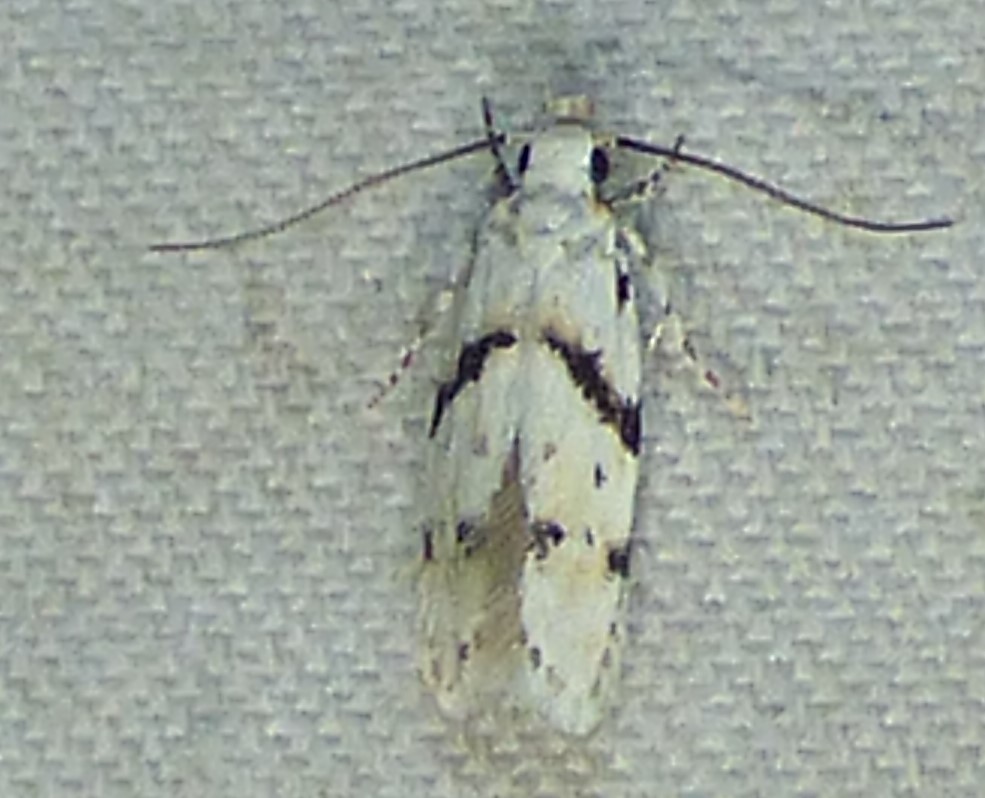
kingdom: Animalia
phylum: Arthropoda
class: Insecta
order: Lepidoptera
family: Gelechiidae
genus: Arogalea
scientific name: Arogalea cristifasciella
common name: White stripe-backed moth
